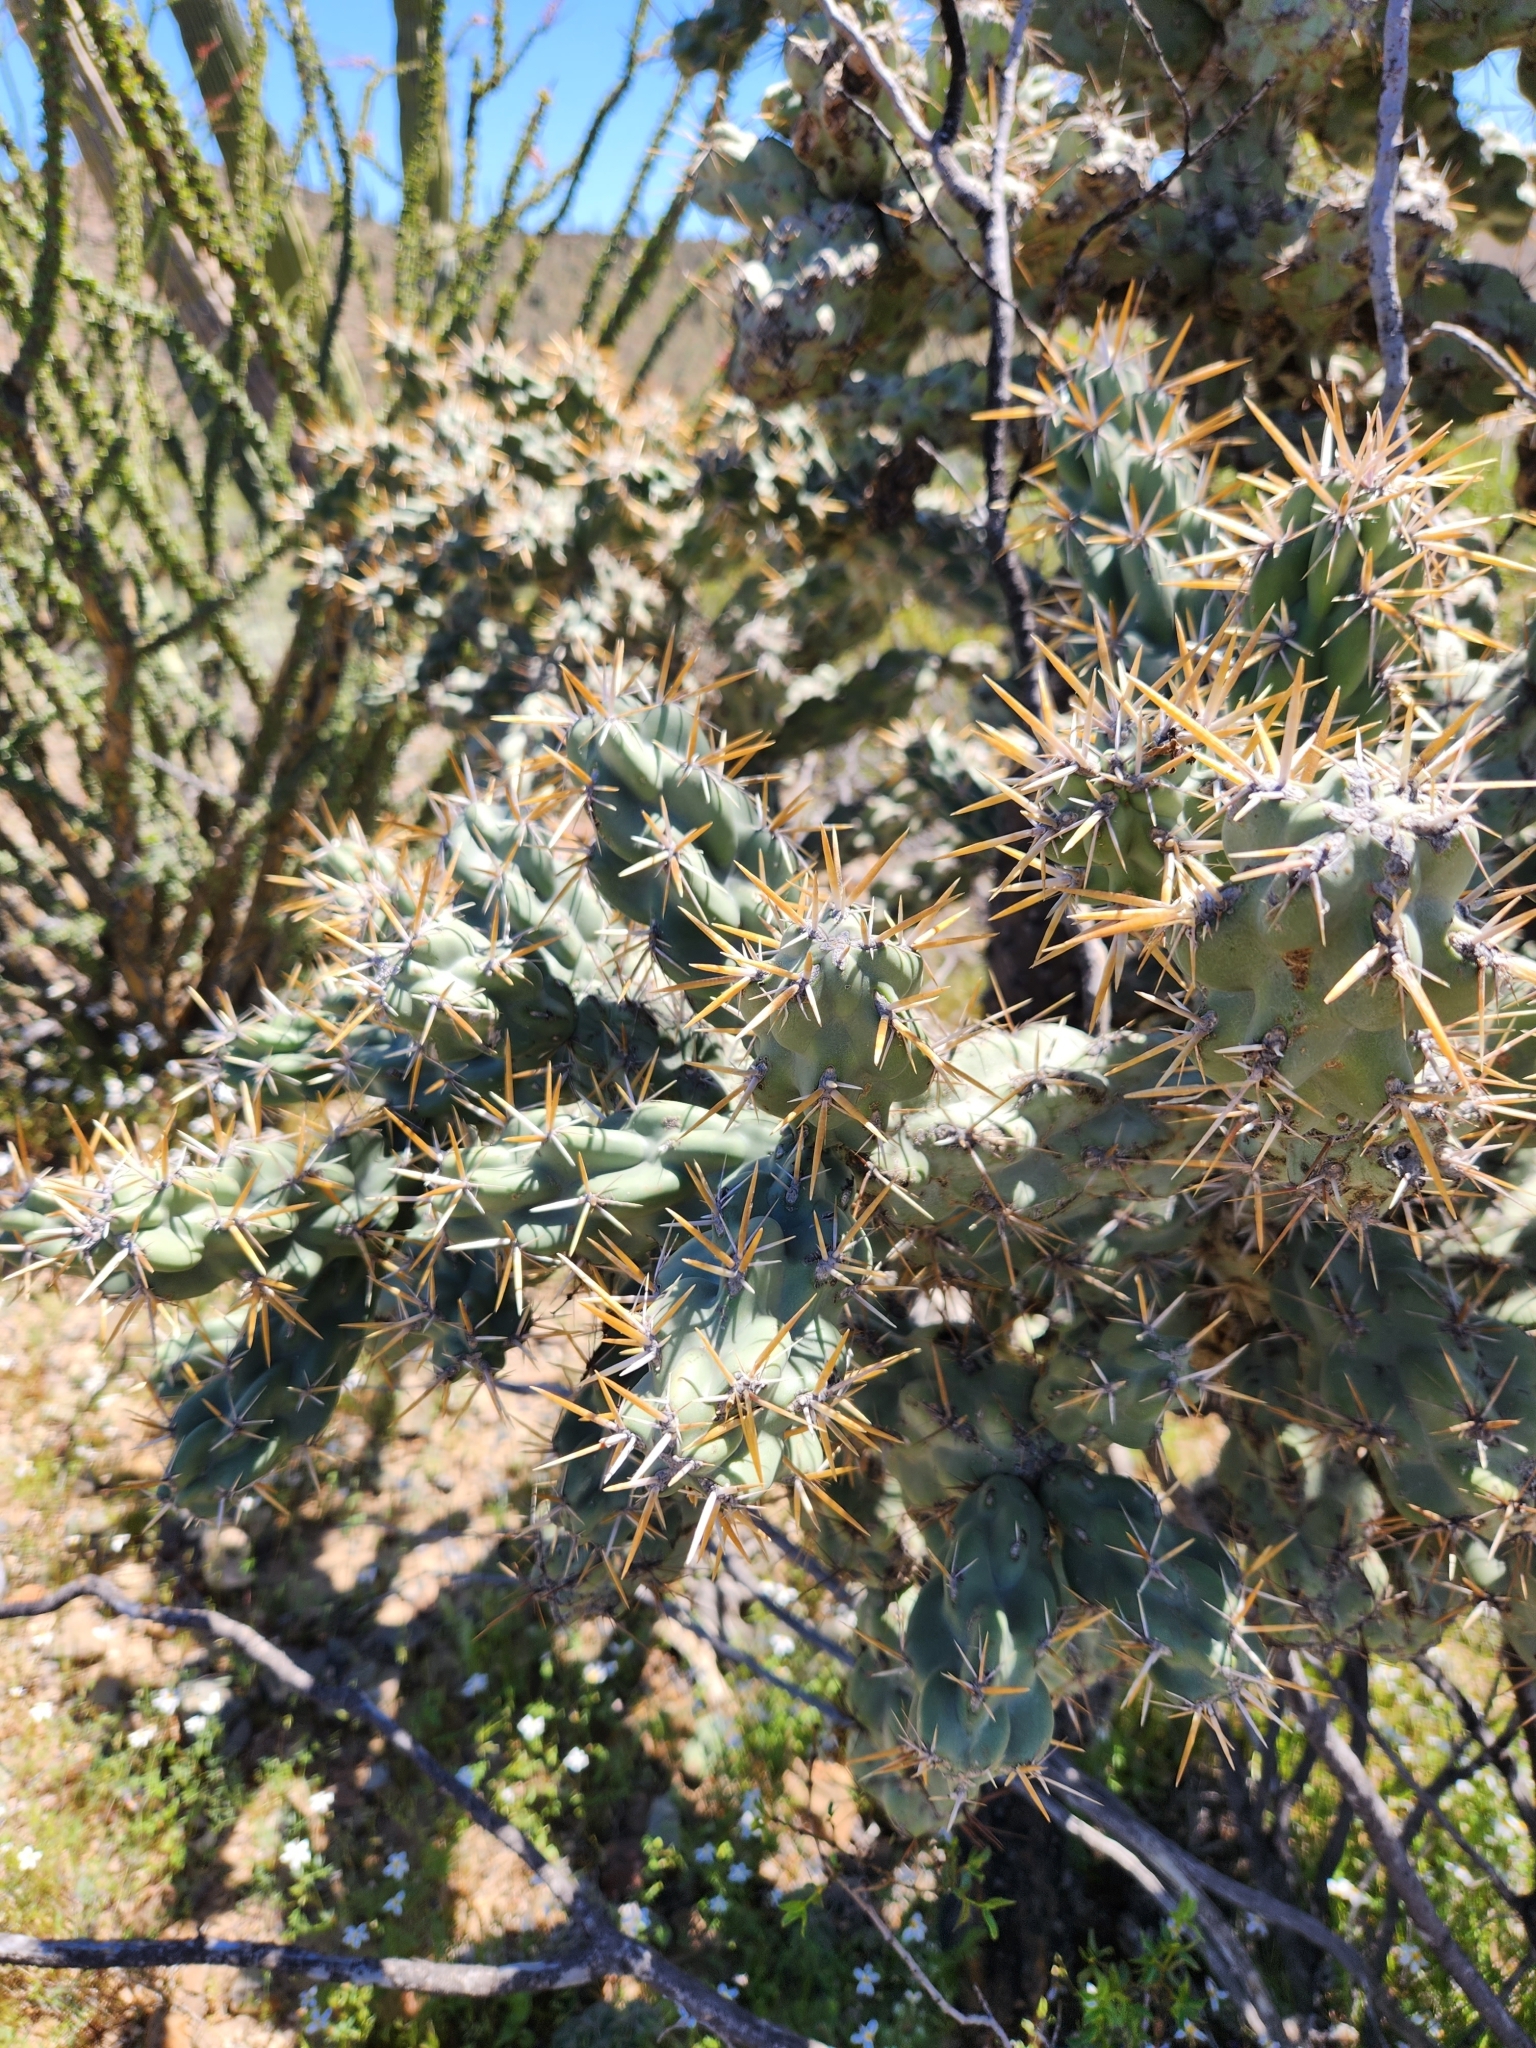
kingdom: Plantae
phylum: Tracheophyta
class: Magnoliopsida
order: Caryophyllales
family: Cactaceae
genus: Cylindropuntia
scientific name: Cylindropuntia cholla
